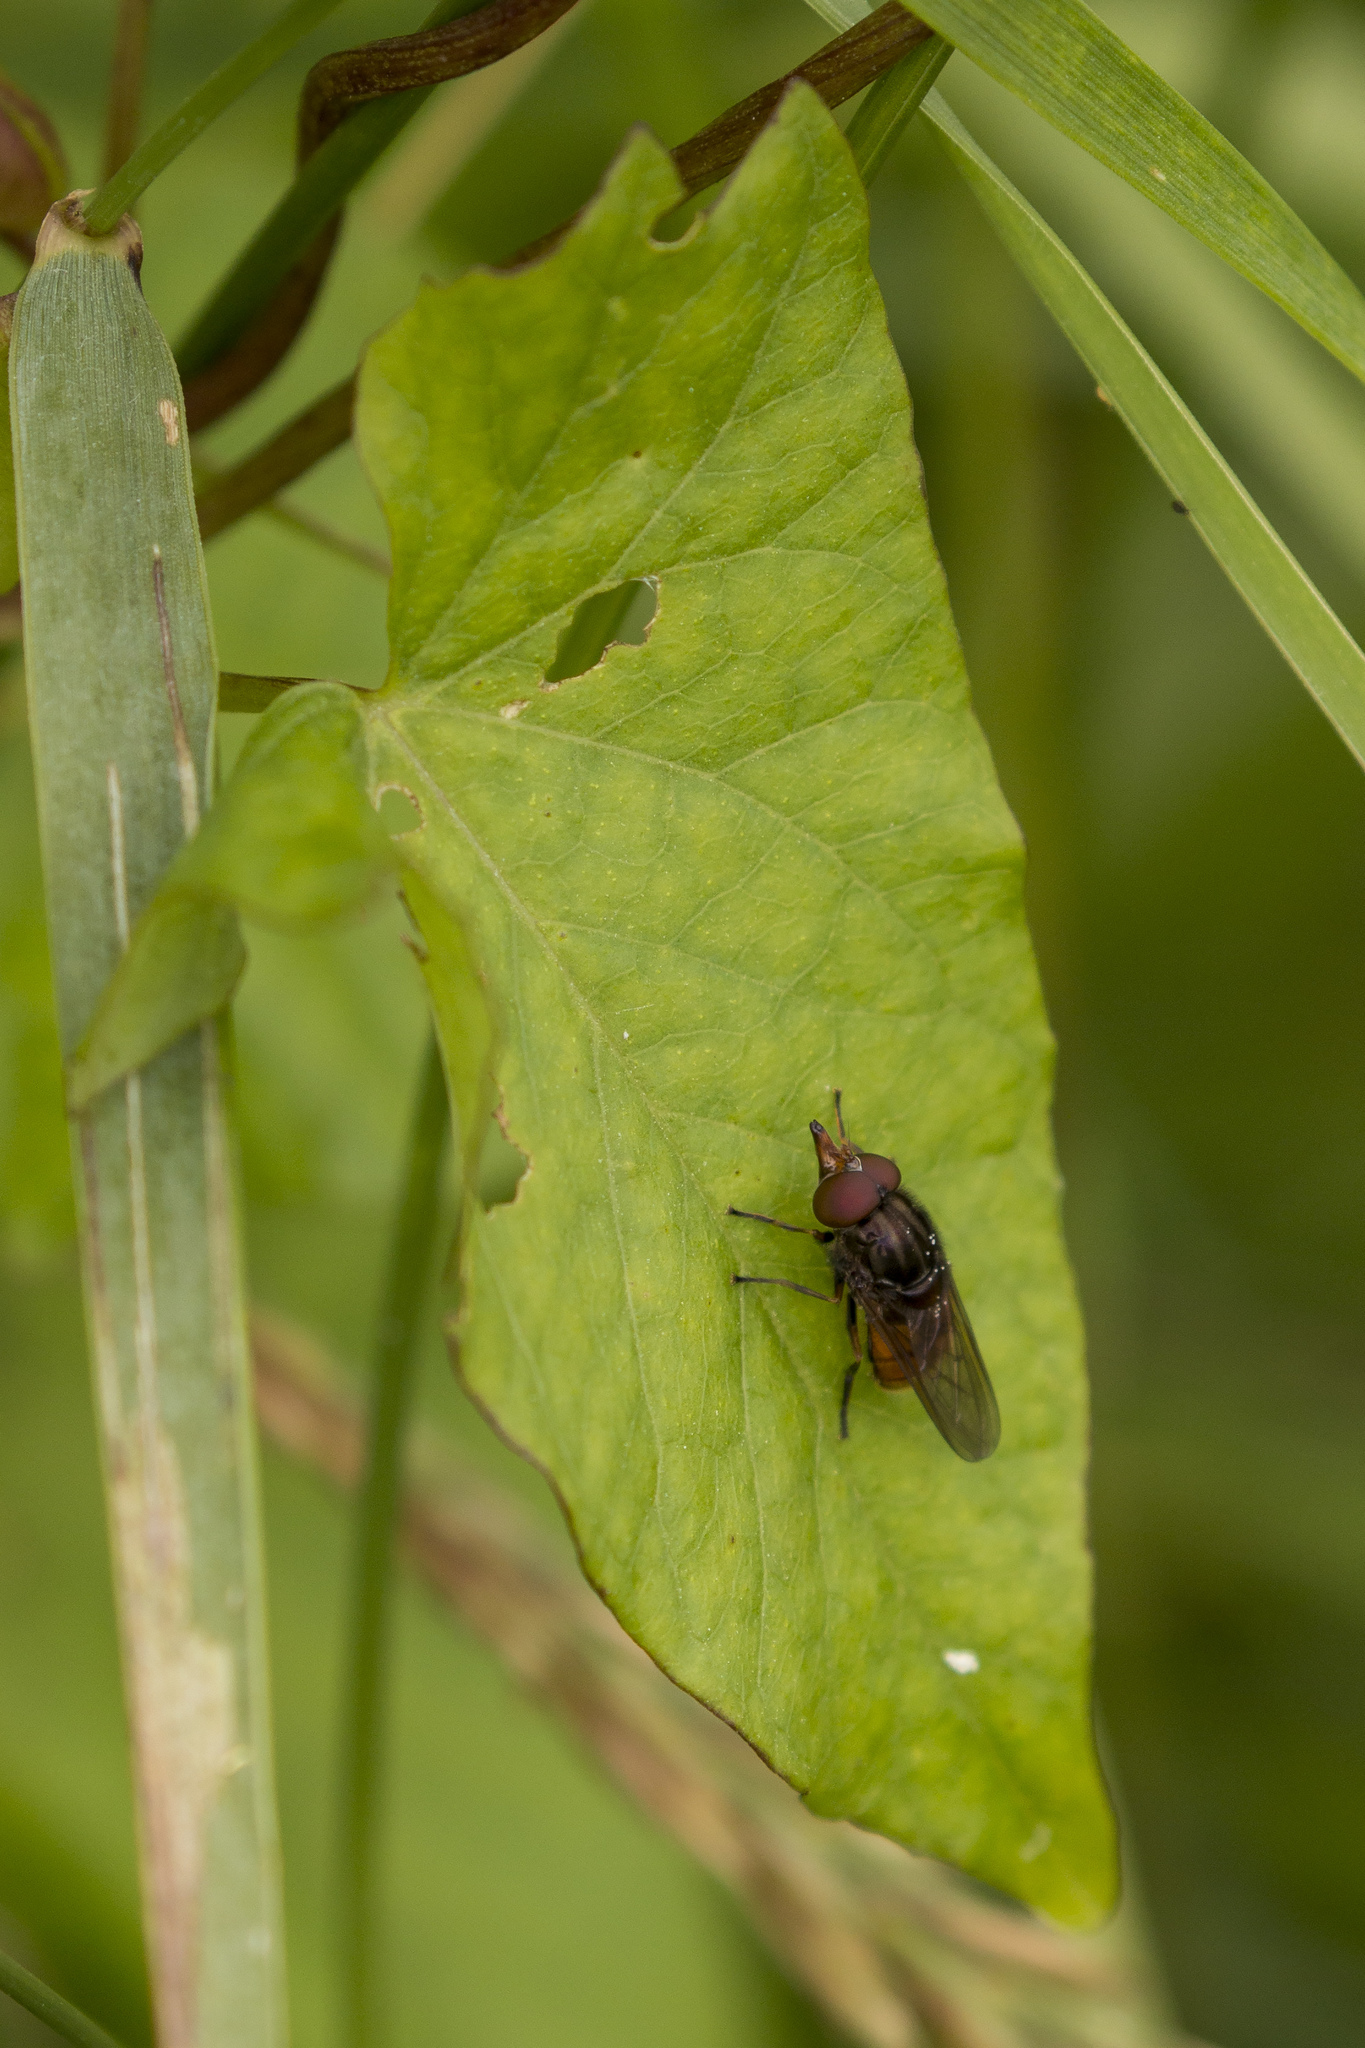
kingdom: Animalia
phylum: Arthropoda
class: Insecta
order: Diptera
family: Syrphidae
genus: Rhingia
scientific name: Rhingia campestris
